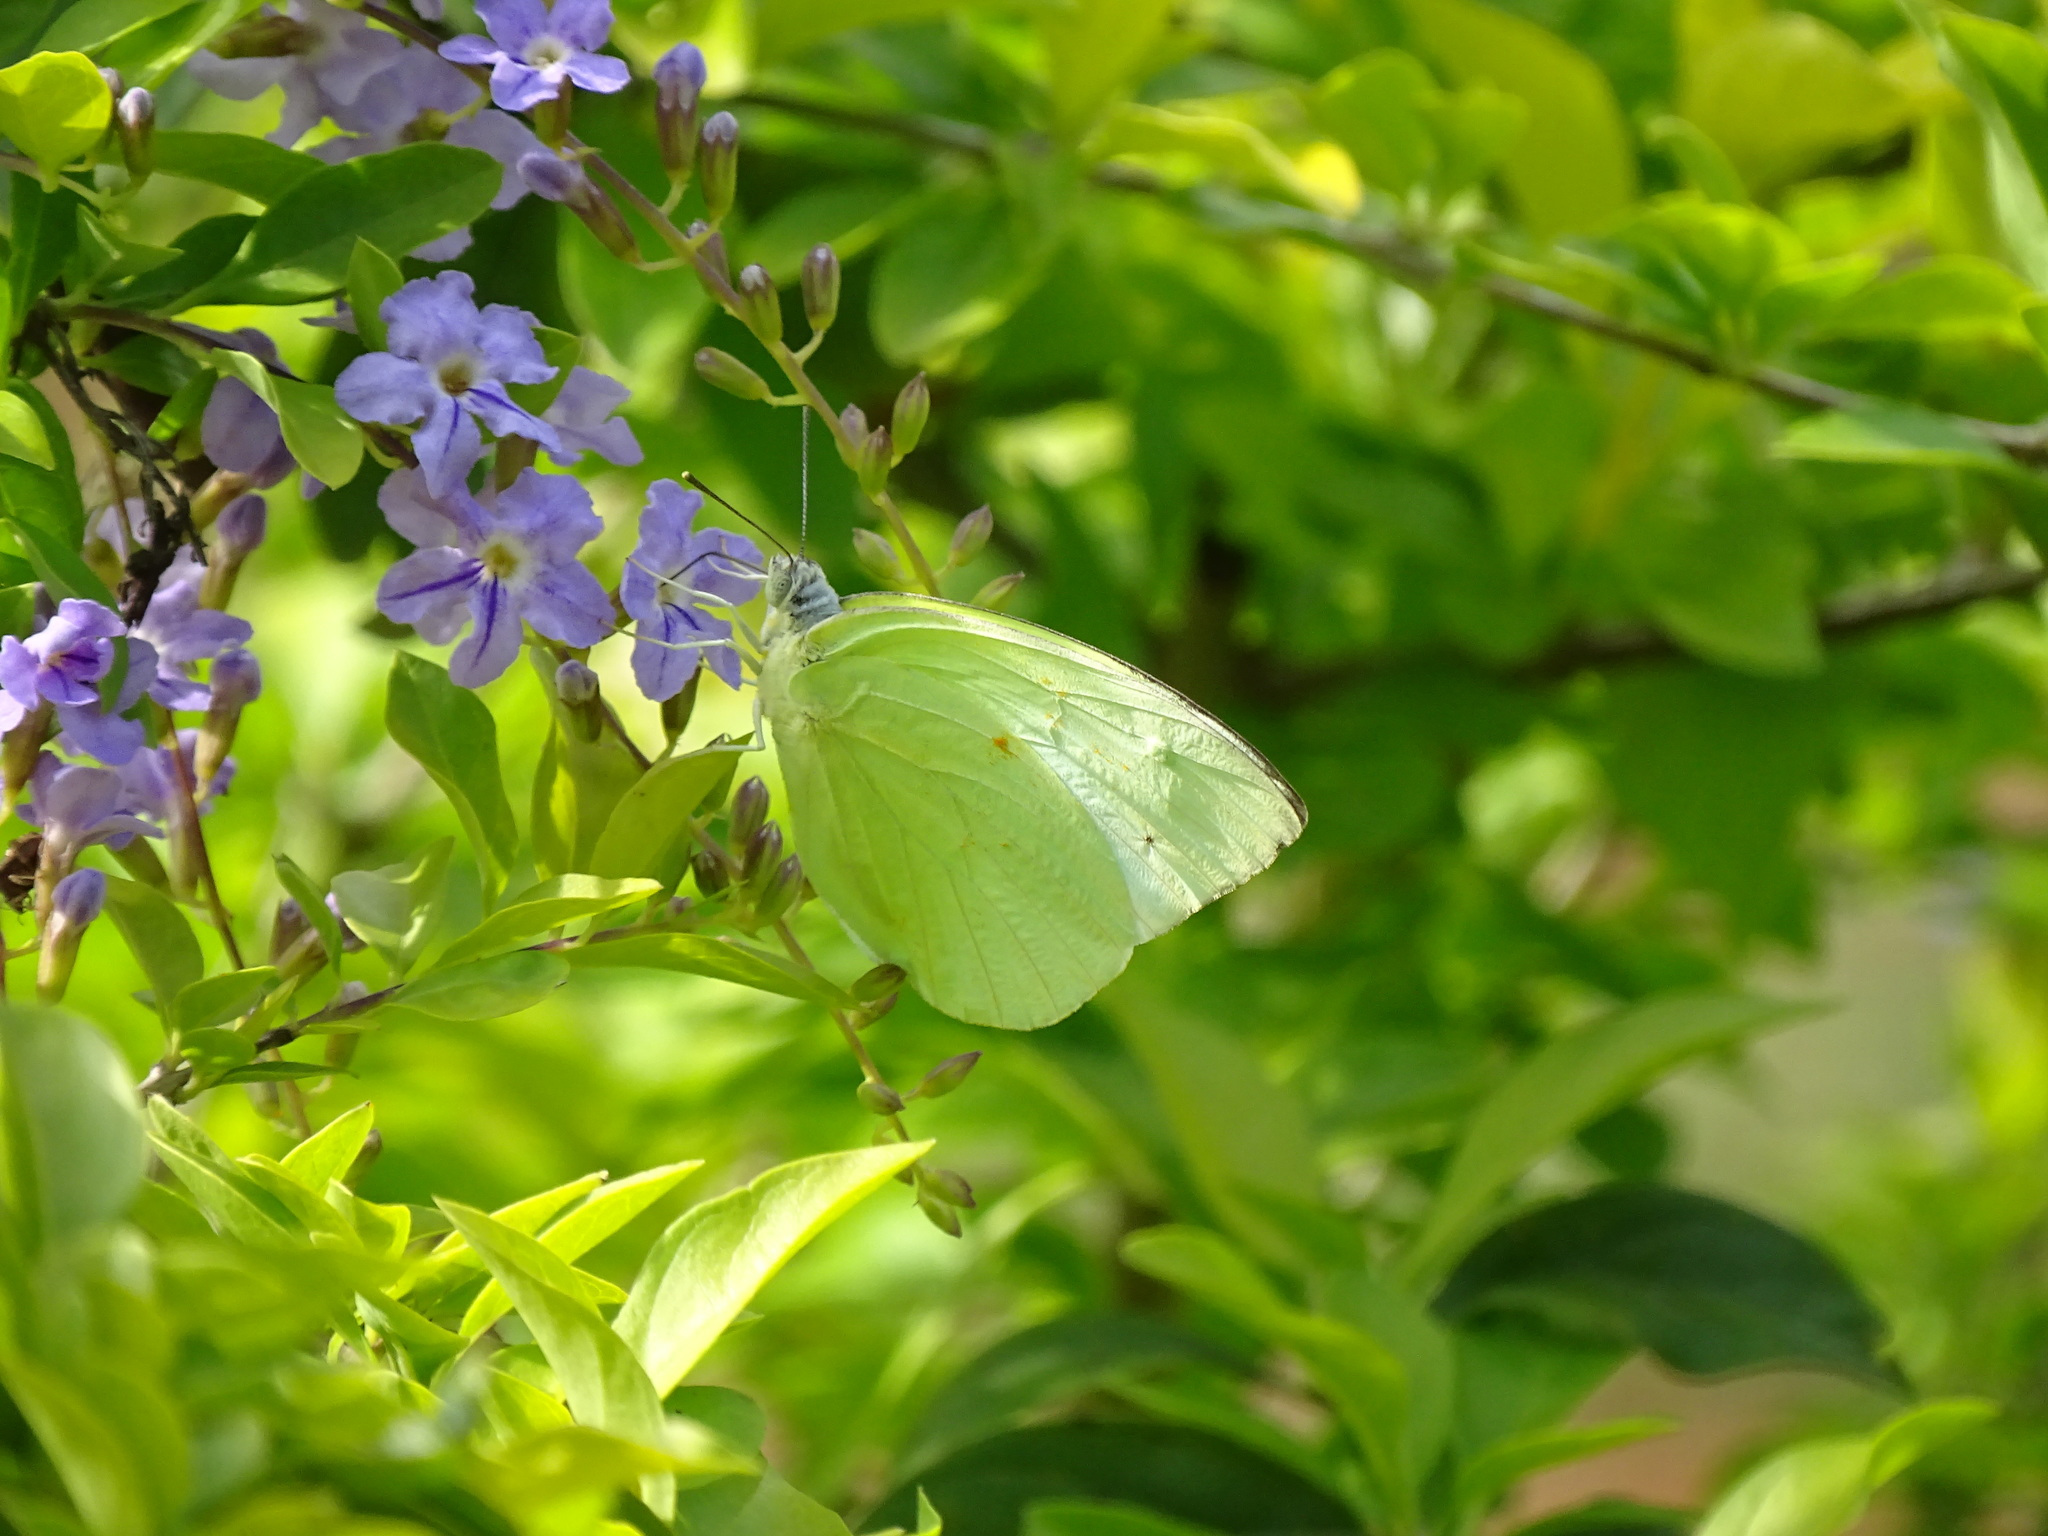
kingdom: Animalia
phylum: Arthropoda
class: Insecta
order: Lepidoptera
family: Pieridae
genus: Catopsilia
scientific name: Catopsilia pomona
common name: Common emigrant
